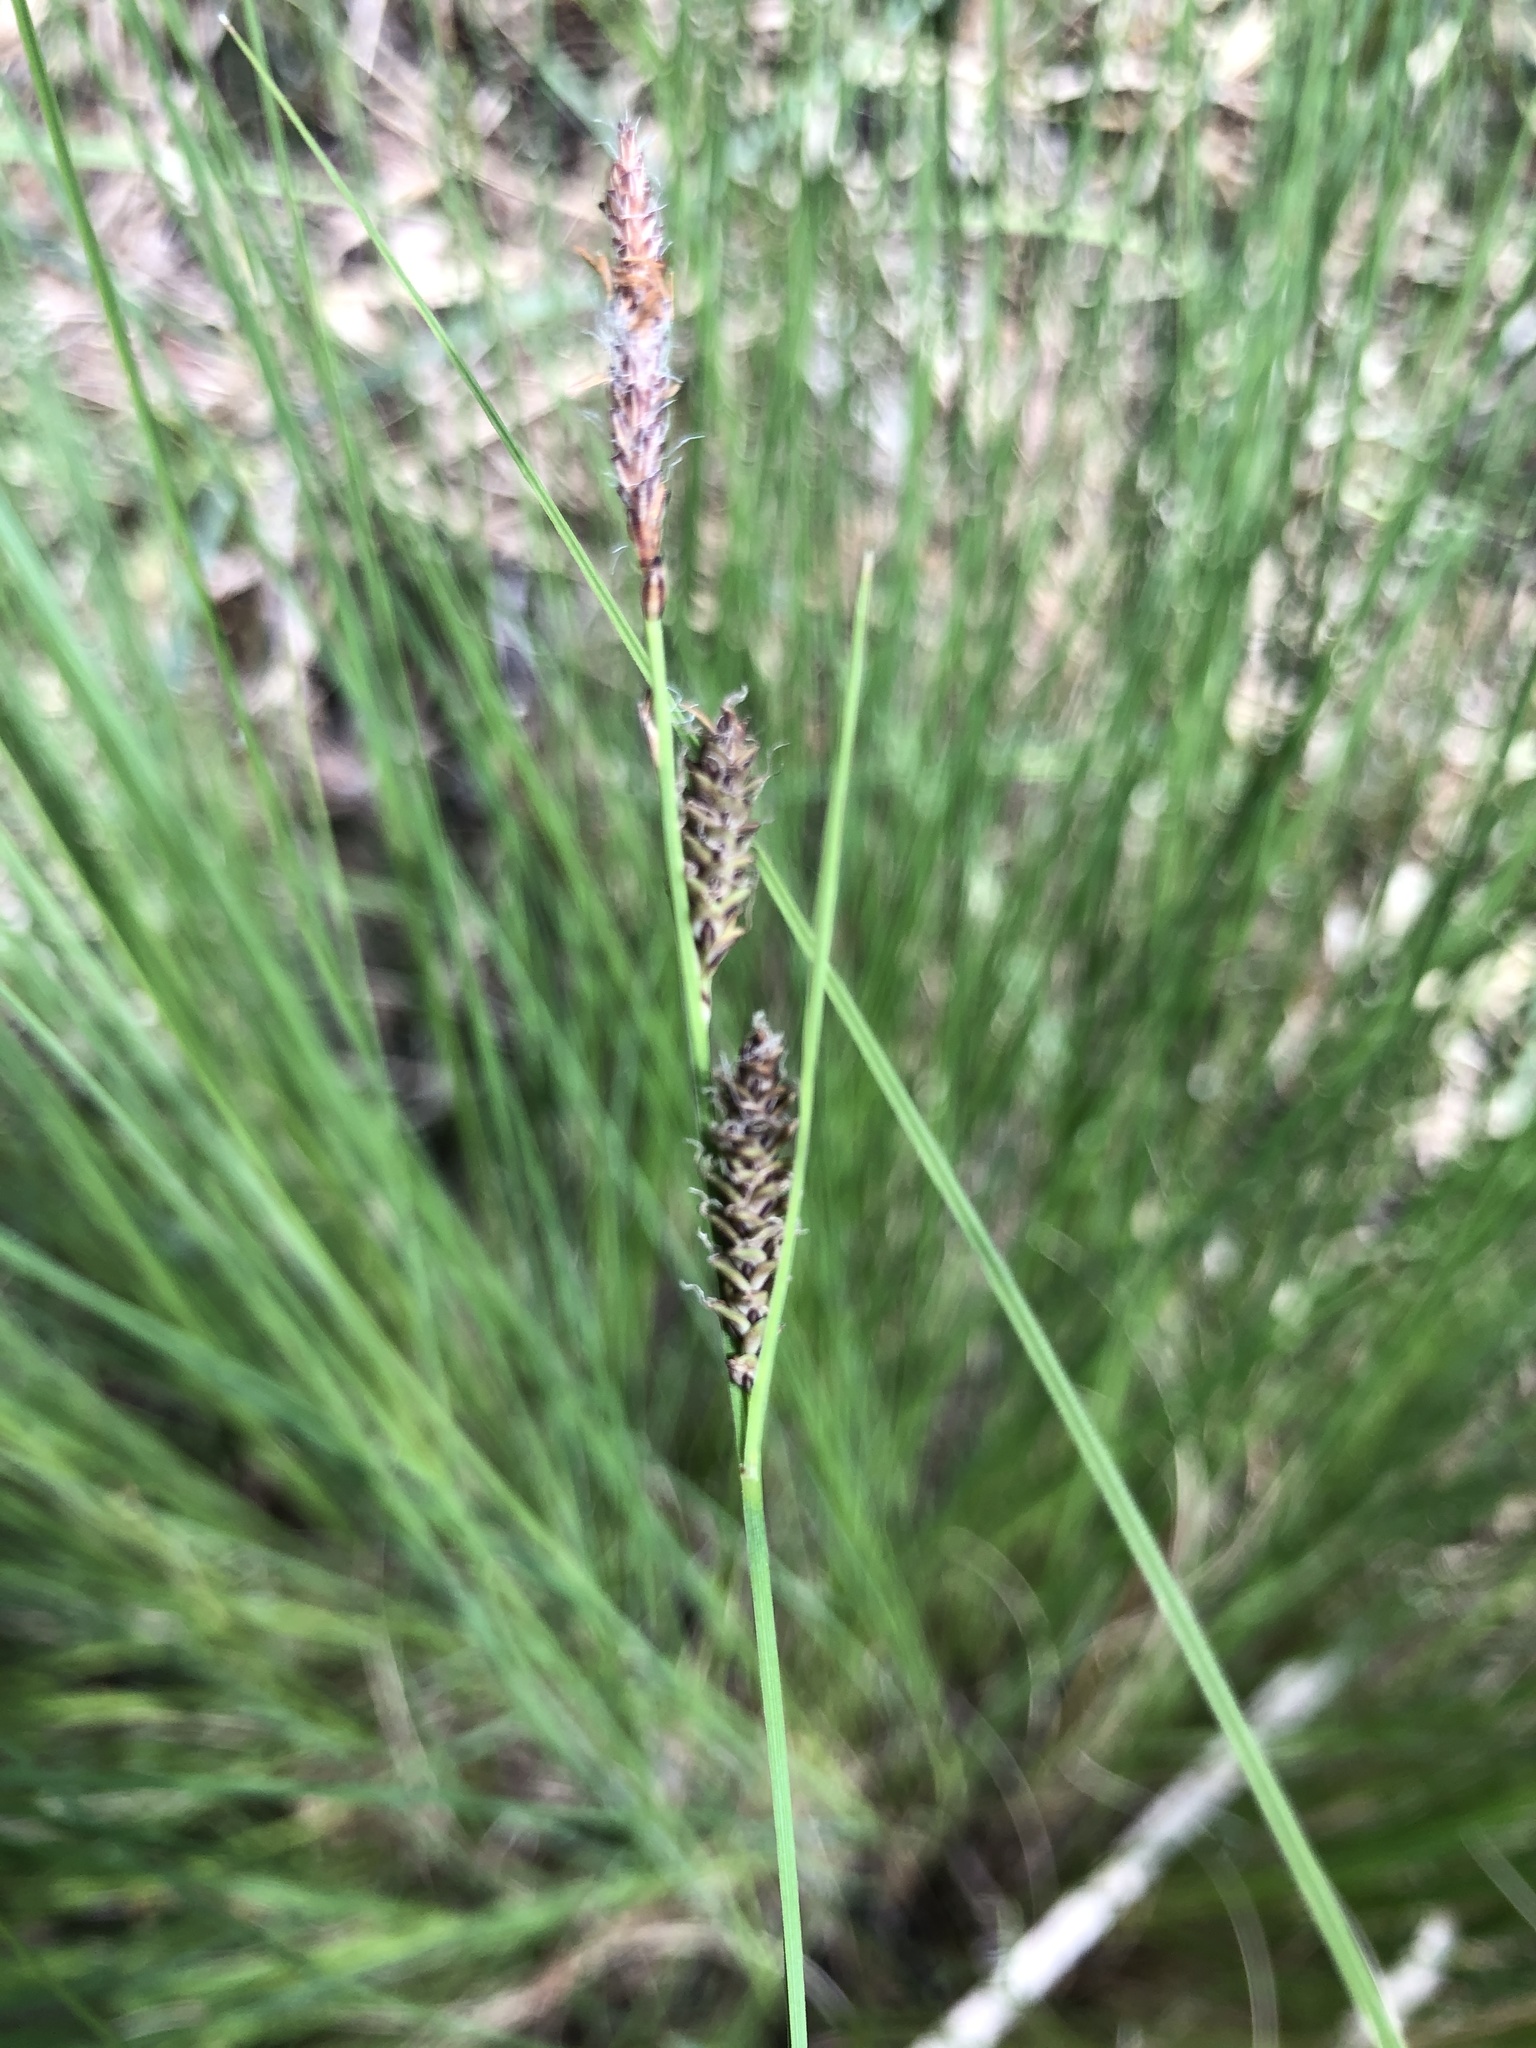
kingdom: Plantae
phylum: Tracheophyta
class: Liliopsida
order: Poales
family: Cyperaceae
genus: Carex
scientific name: Carex nigra
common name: Common sedge
